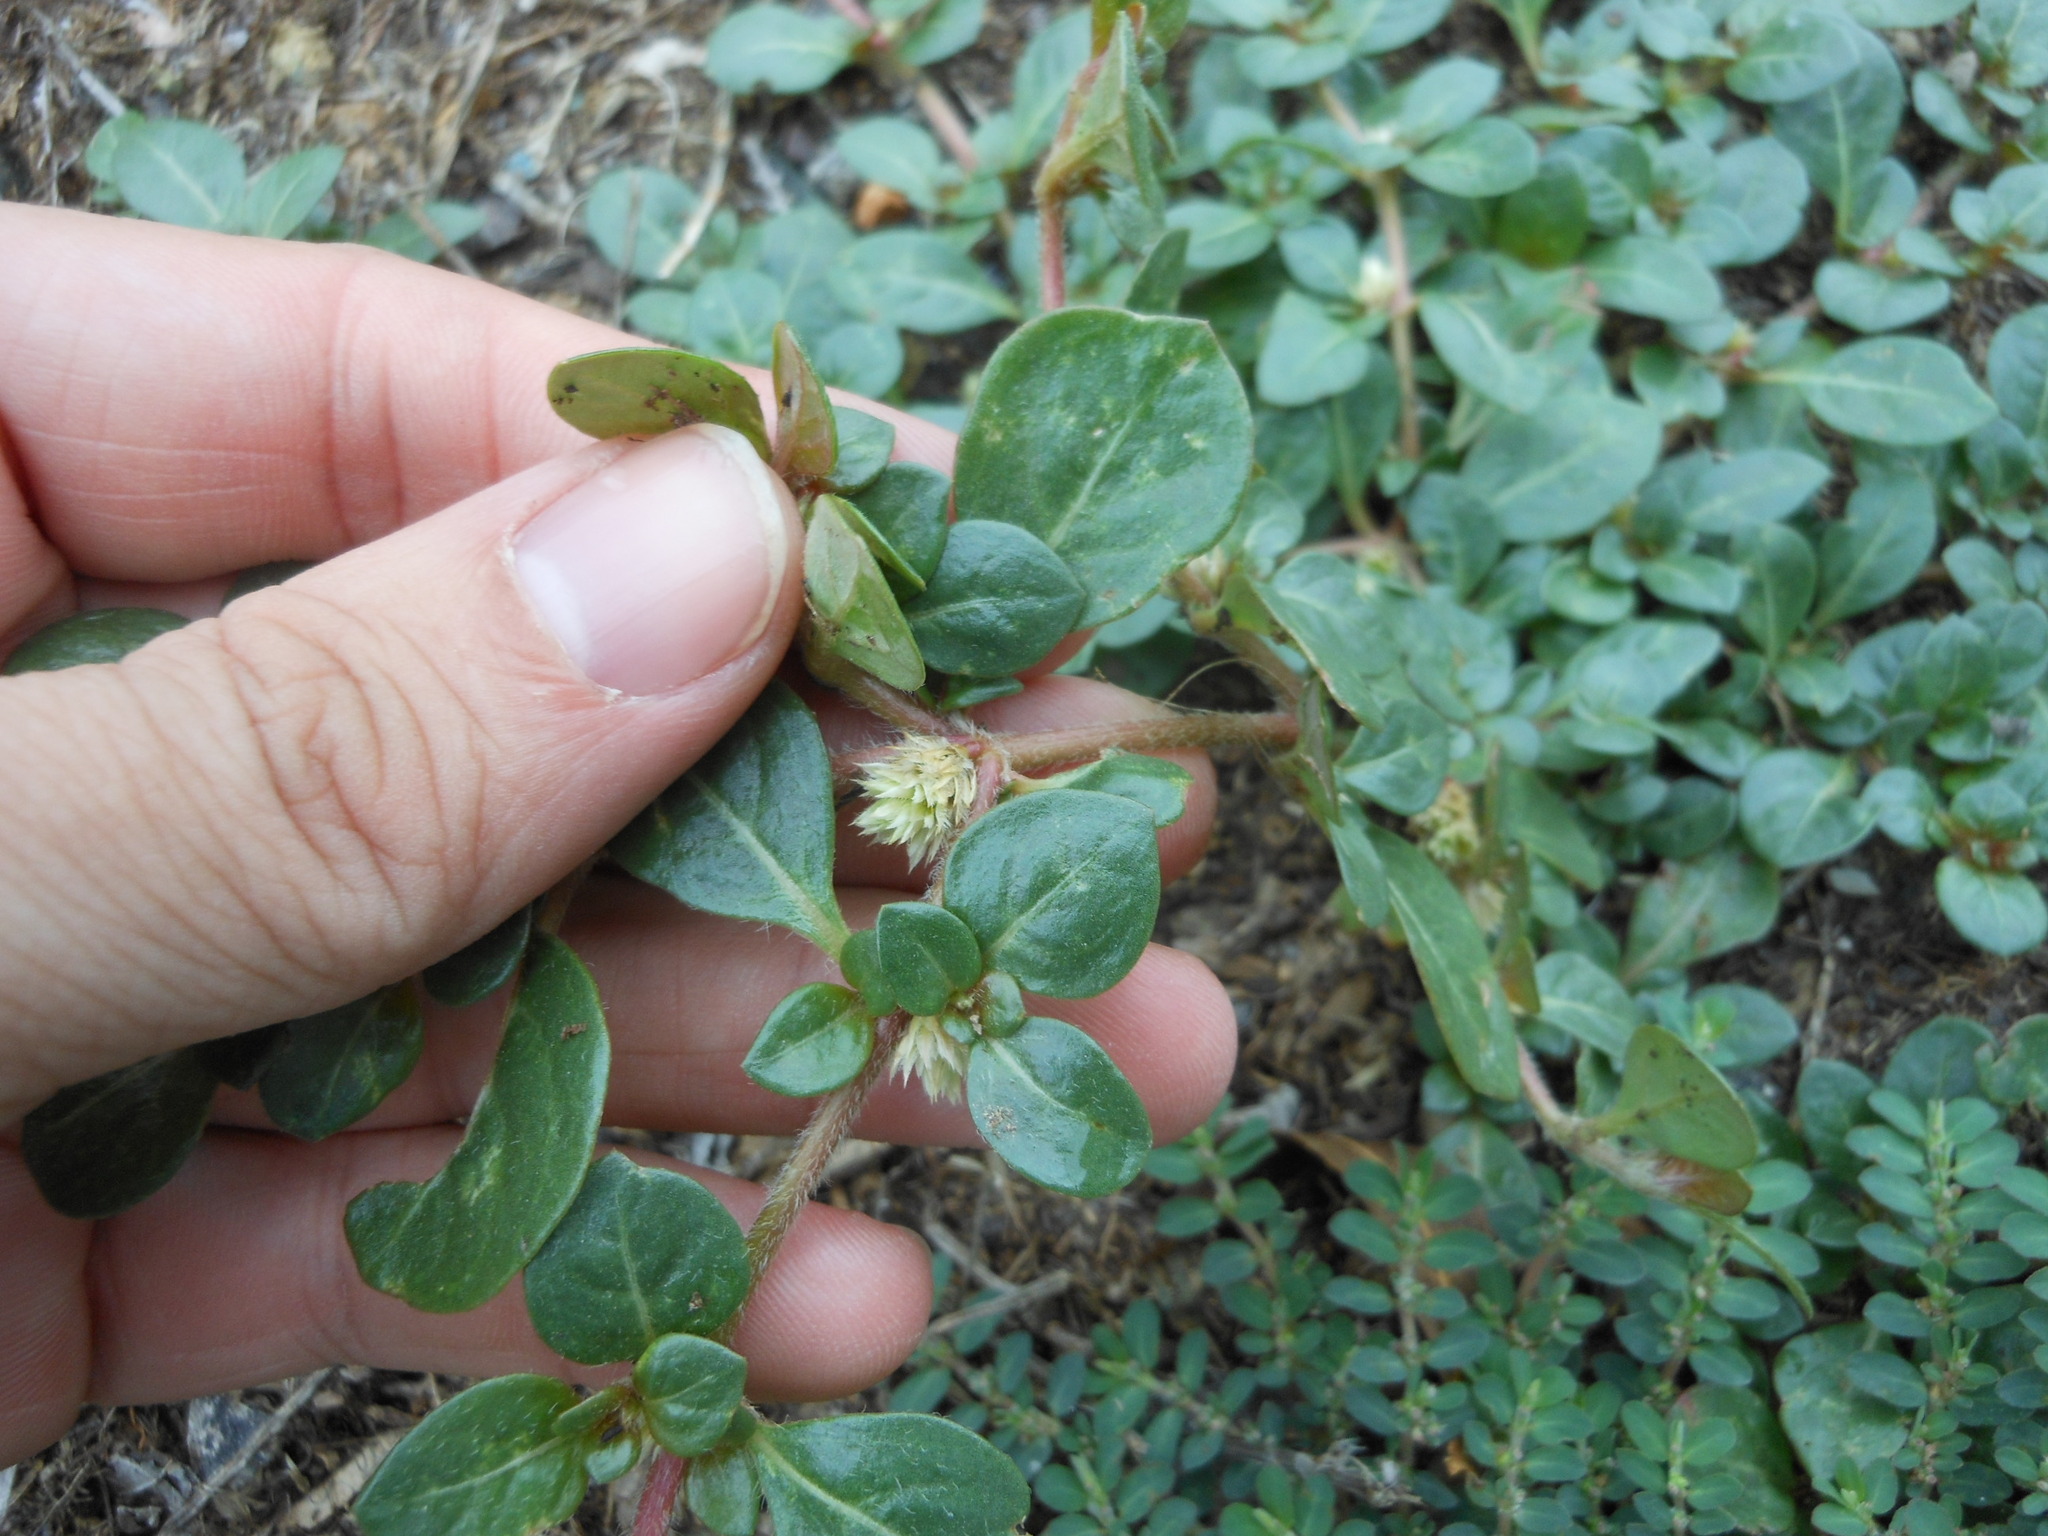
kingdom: Plantae
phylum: Tracheophyta
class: Magnoliopsida
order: Caryophyllales
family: Amaranthaceae
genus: Alternanthera
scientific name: Alternanthera caracasana
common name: Washerwoman
